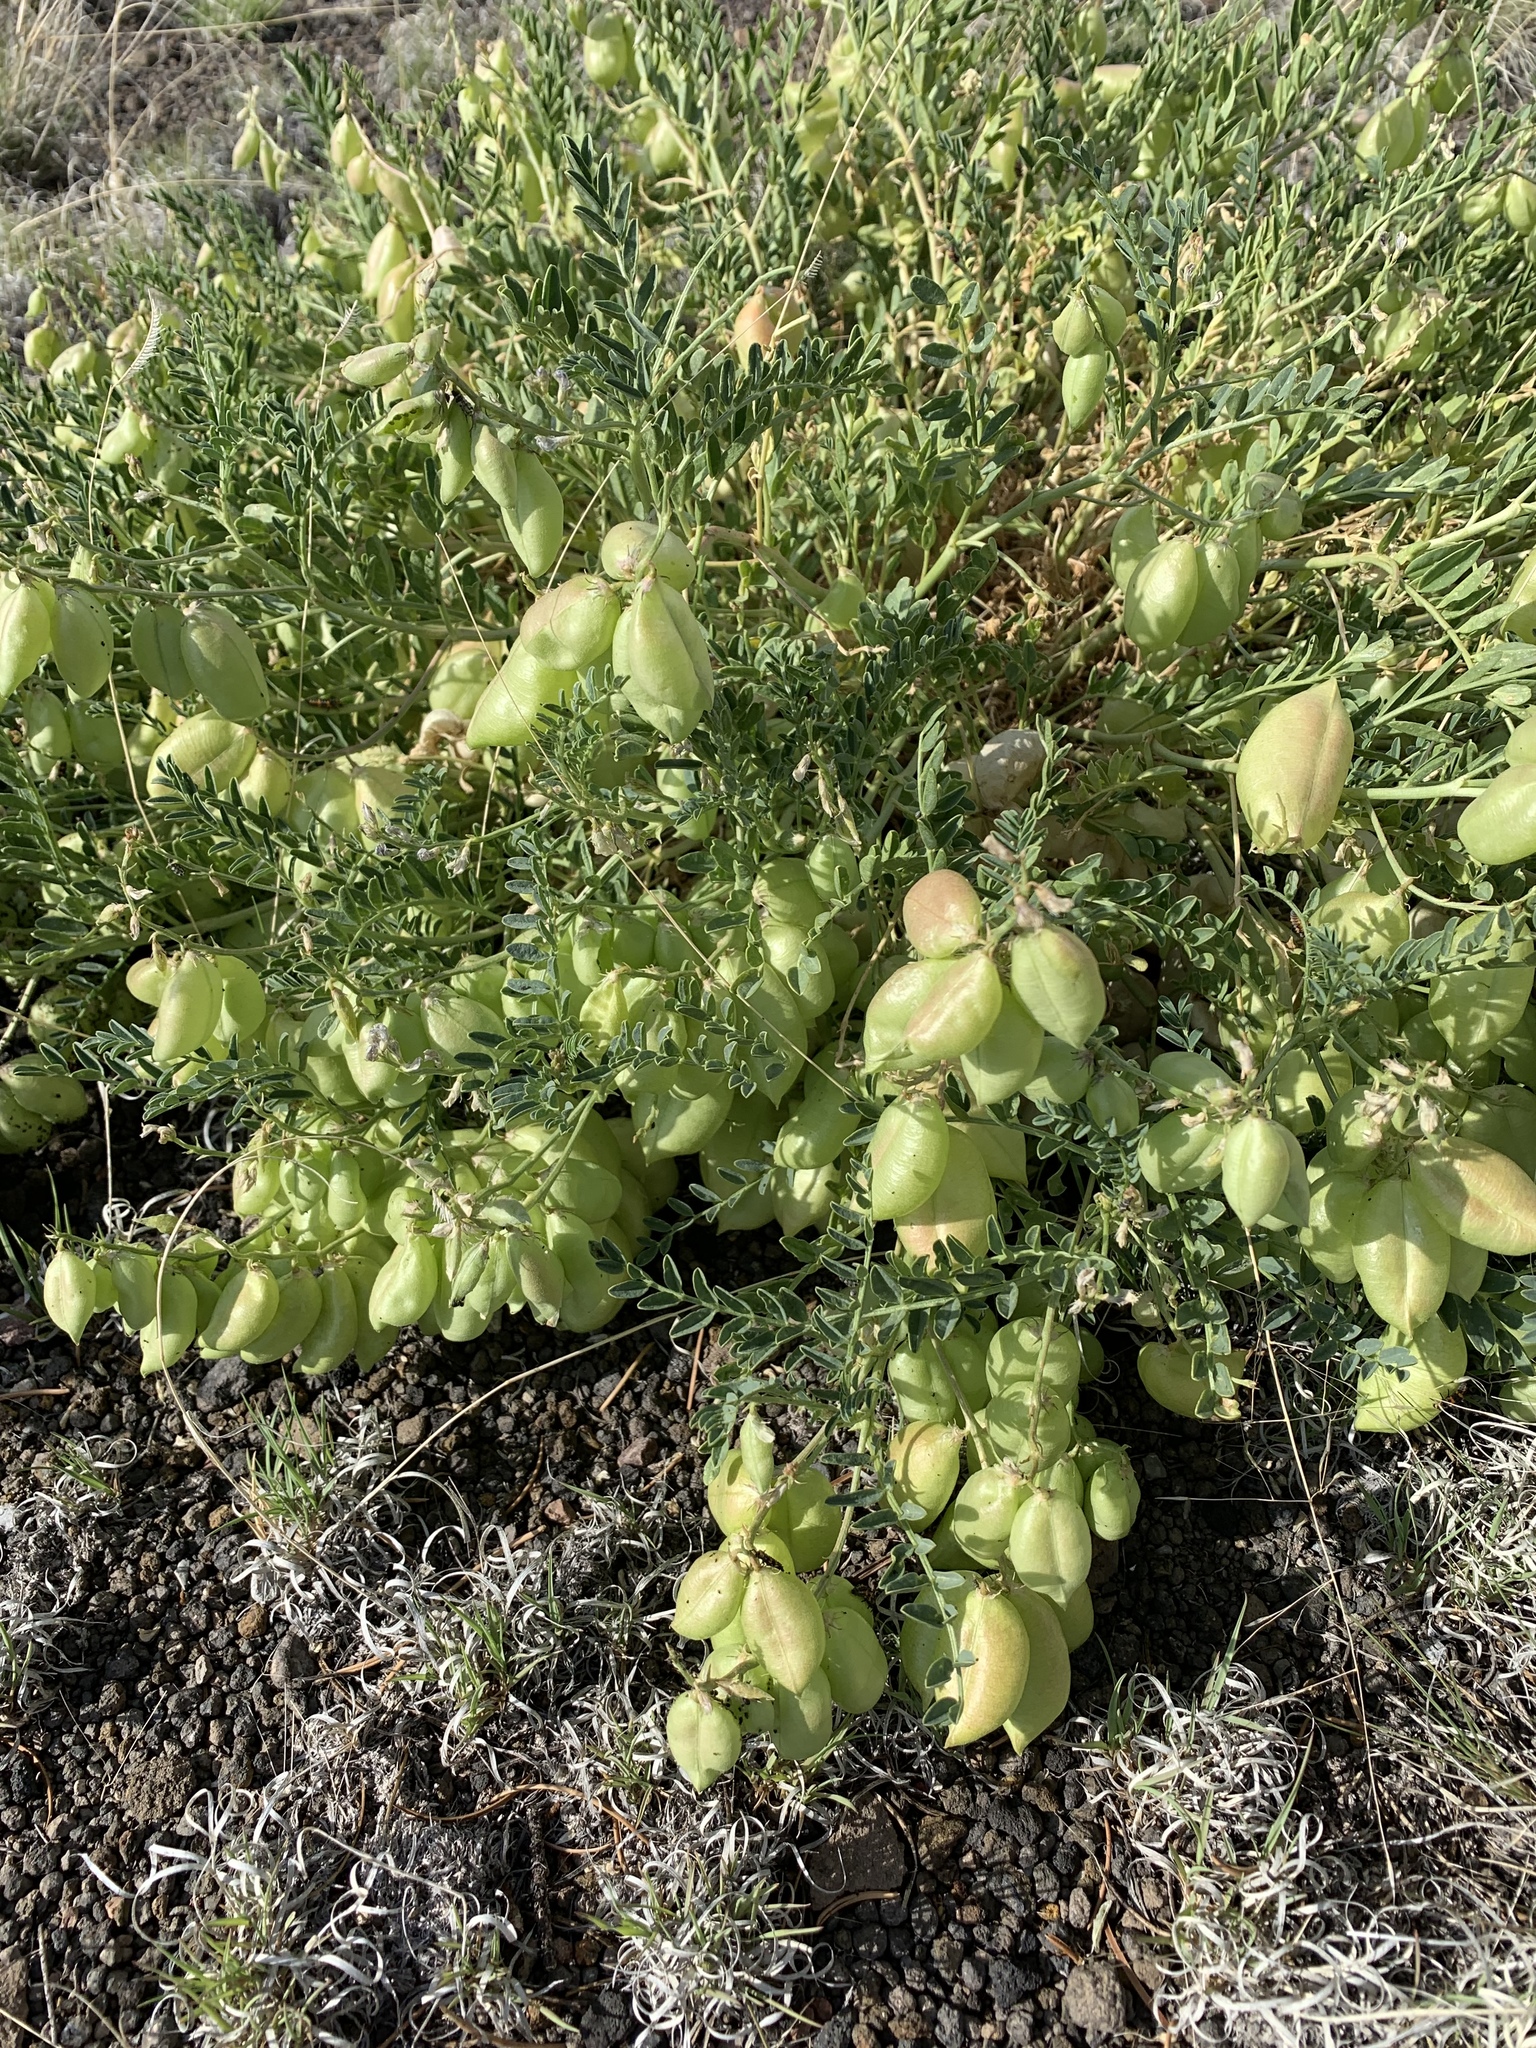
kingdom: Plantae
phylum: Tracheophyta
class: Magnoliopsida
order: Fabales
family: Fabaceae
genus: Astragalus
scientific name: Astragalus allochrous
